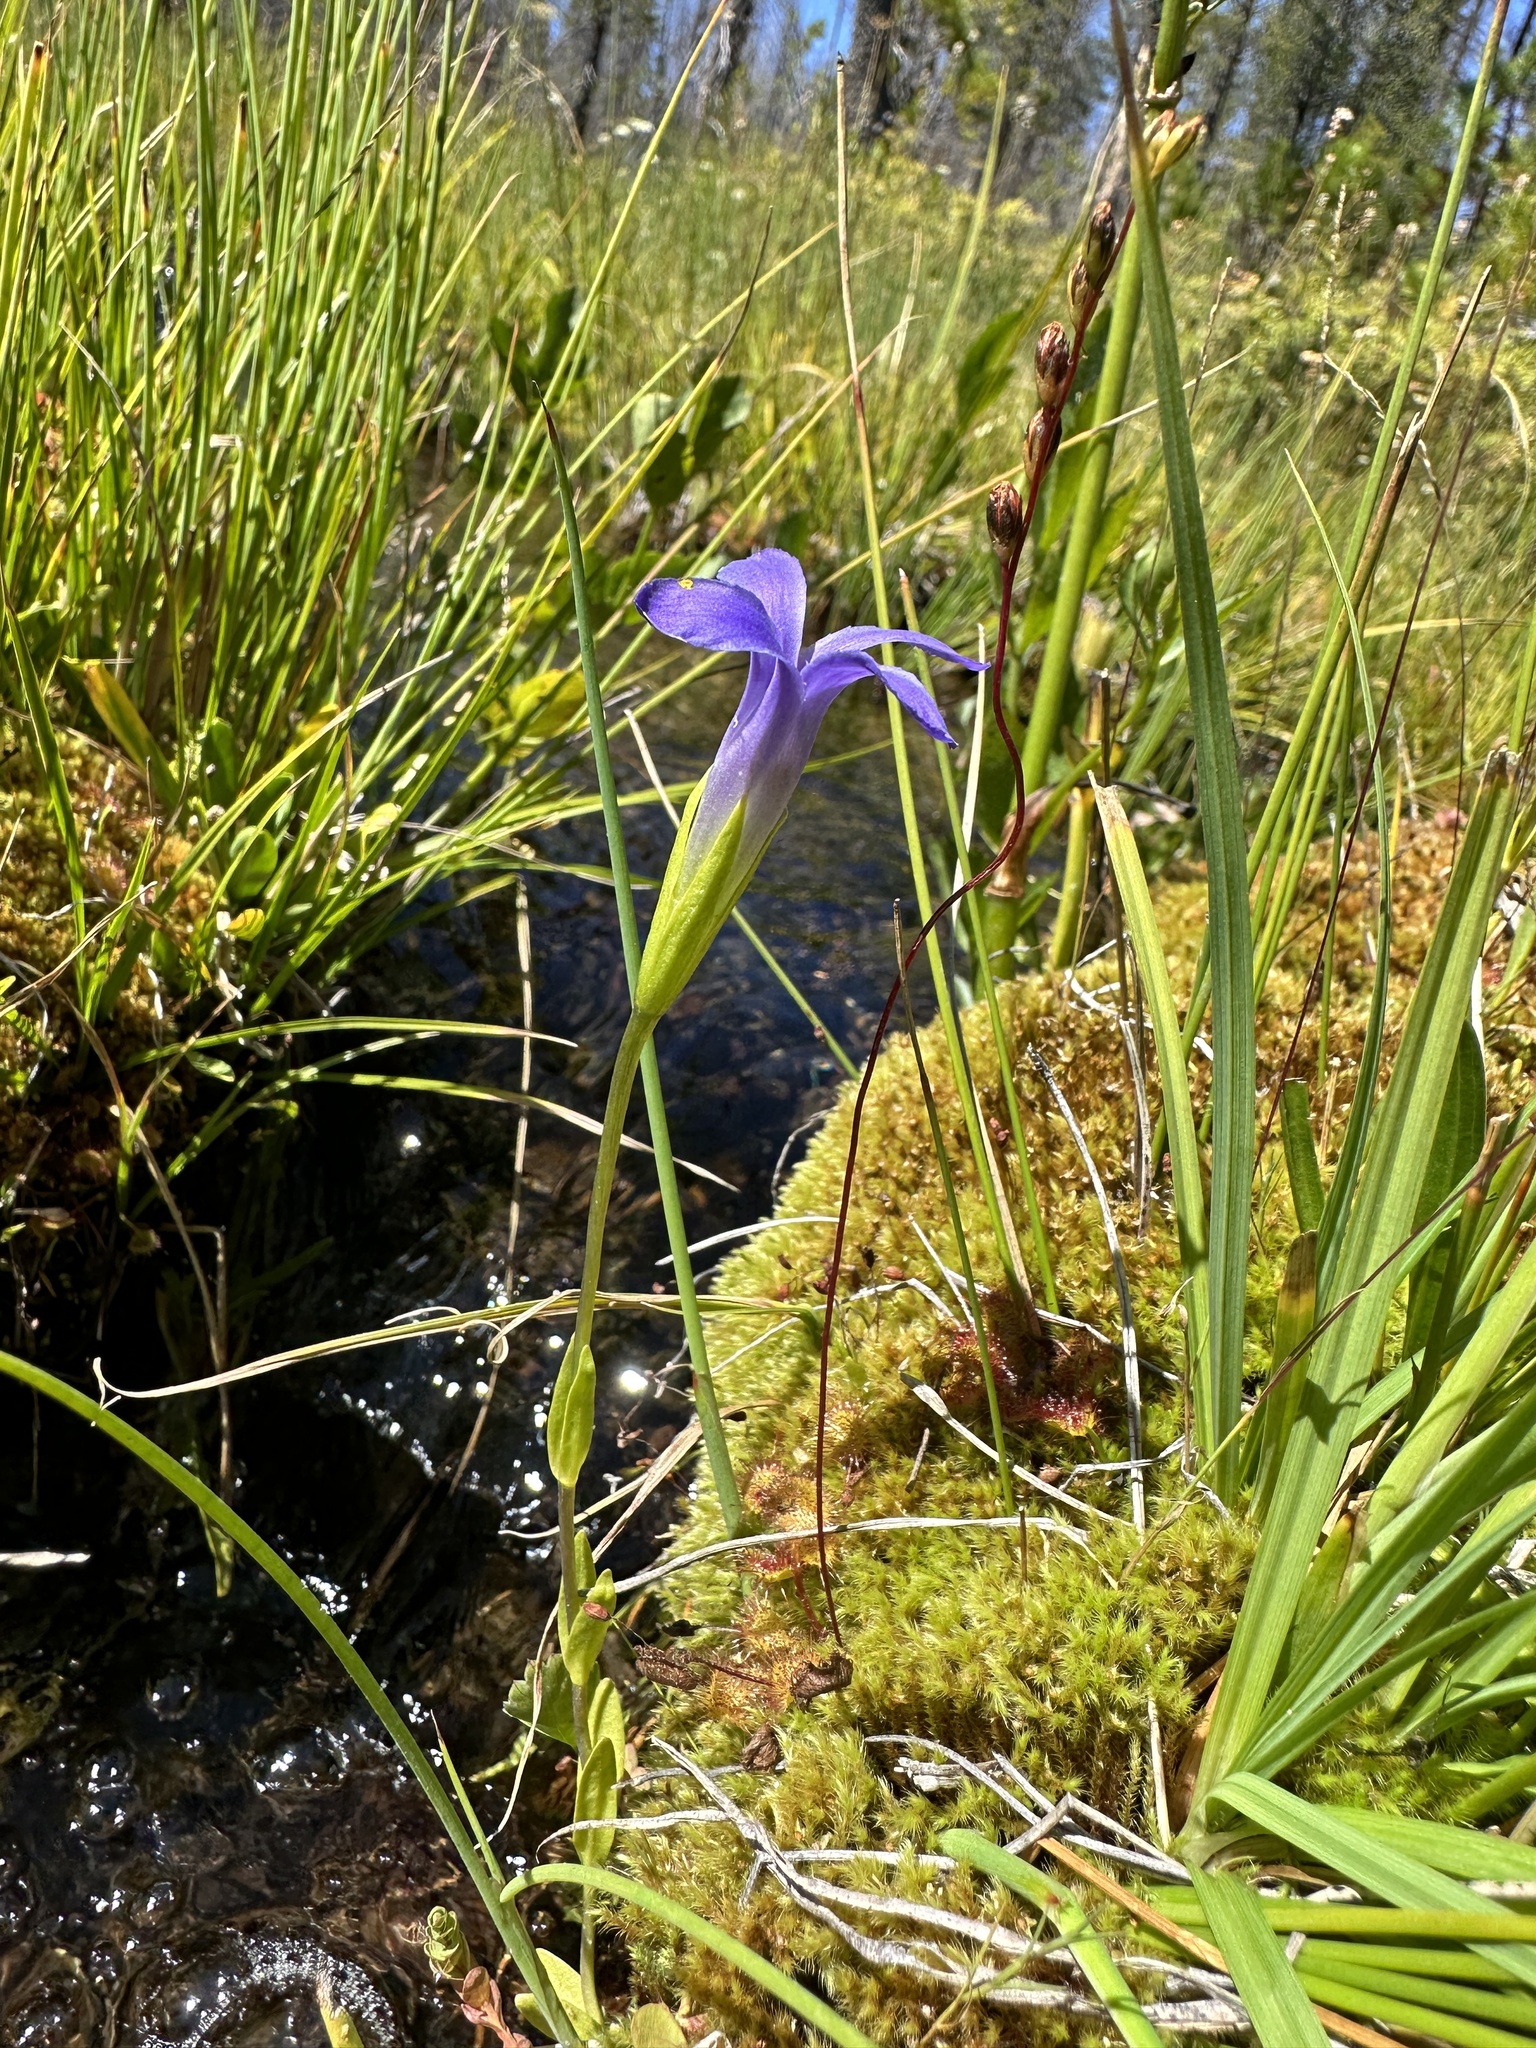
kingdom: Plantae
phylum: Tracheophyta
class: Magnoliopsida
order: Gentianales
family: Gentianaceae
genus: Gentianopsis
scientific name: Gentianopsis simplex
